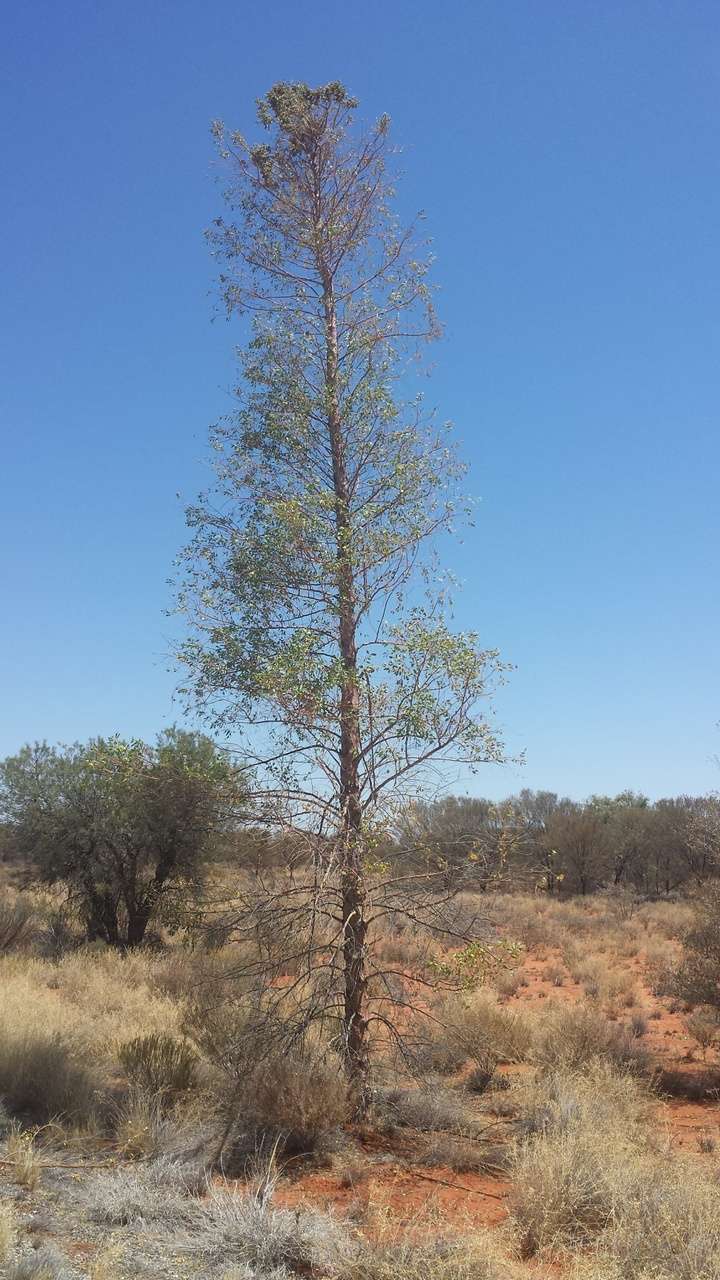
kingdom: Plantae
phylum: Tracheophyta
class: Magnoliopsida
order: Brassicales
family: Gyrostemonaceae
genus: Codonocarpus
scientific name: Codonocarpus cotinifolius
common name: Mustardtree
